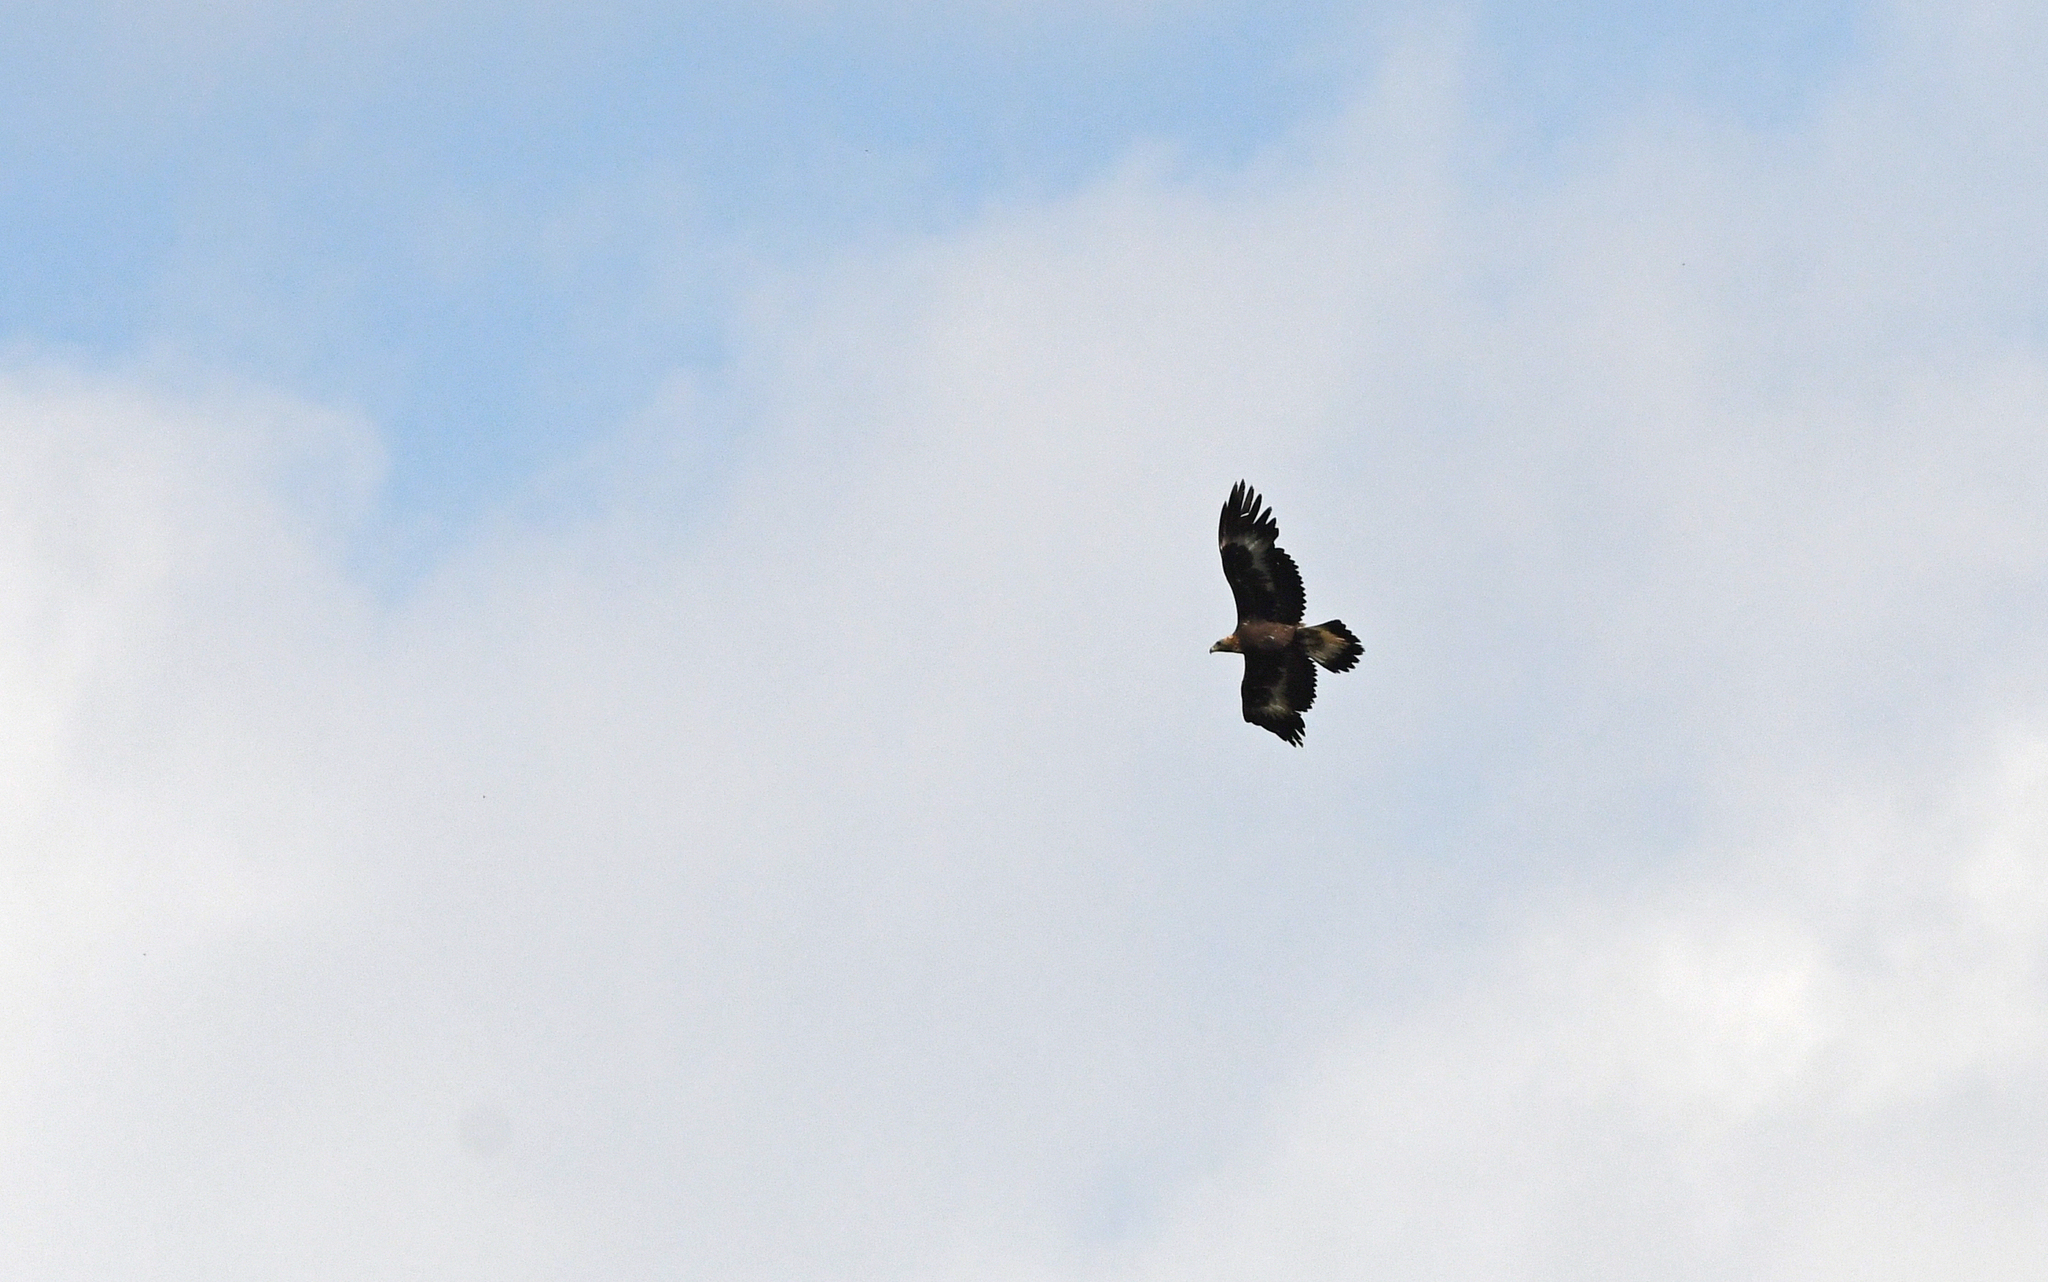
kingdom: Animalia
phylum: Chordata
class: Aves
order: Accipitriformes
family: Accipitridae
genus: Aquila
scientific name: Aquila chrysaetos
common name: Golden eagle
